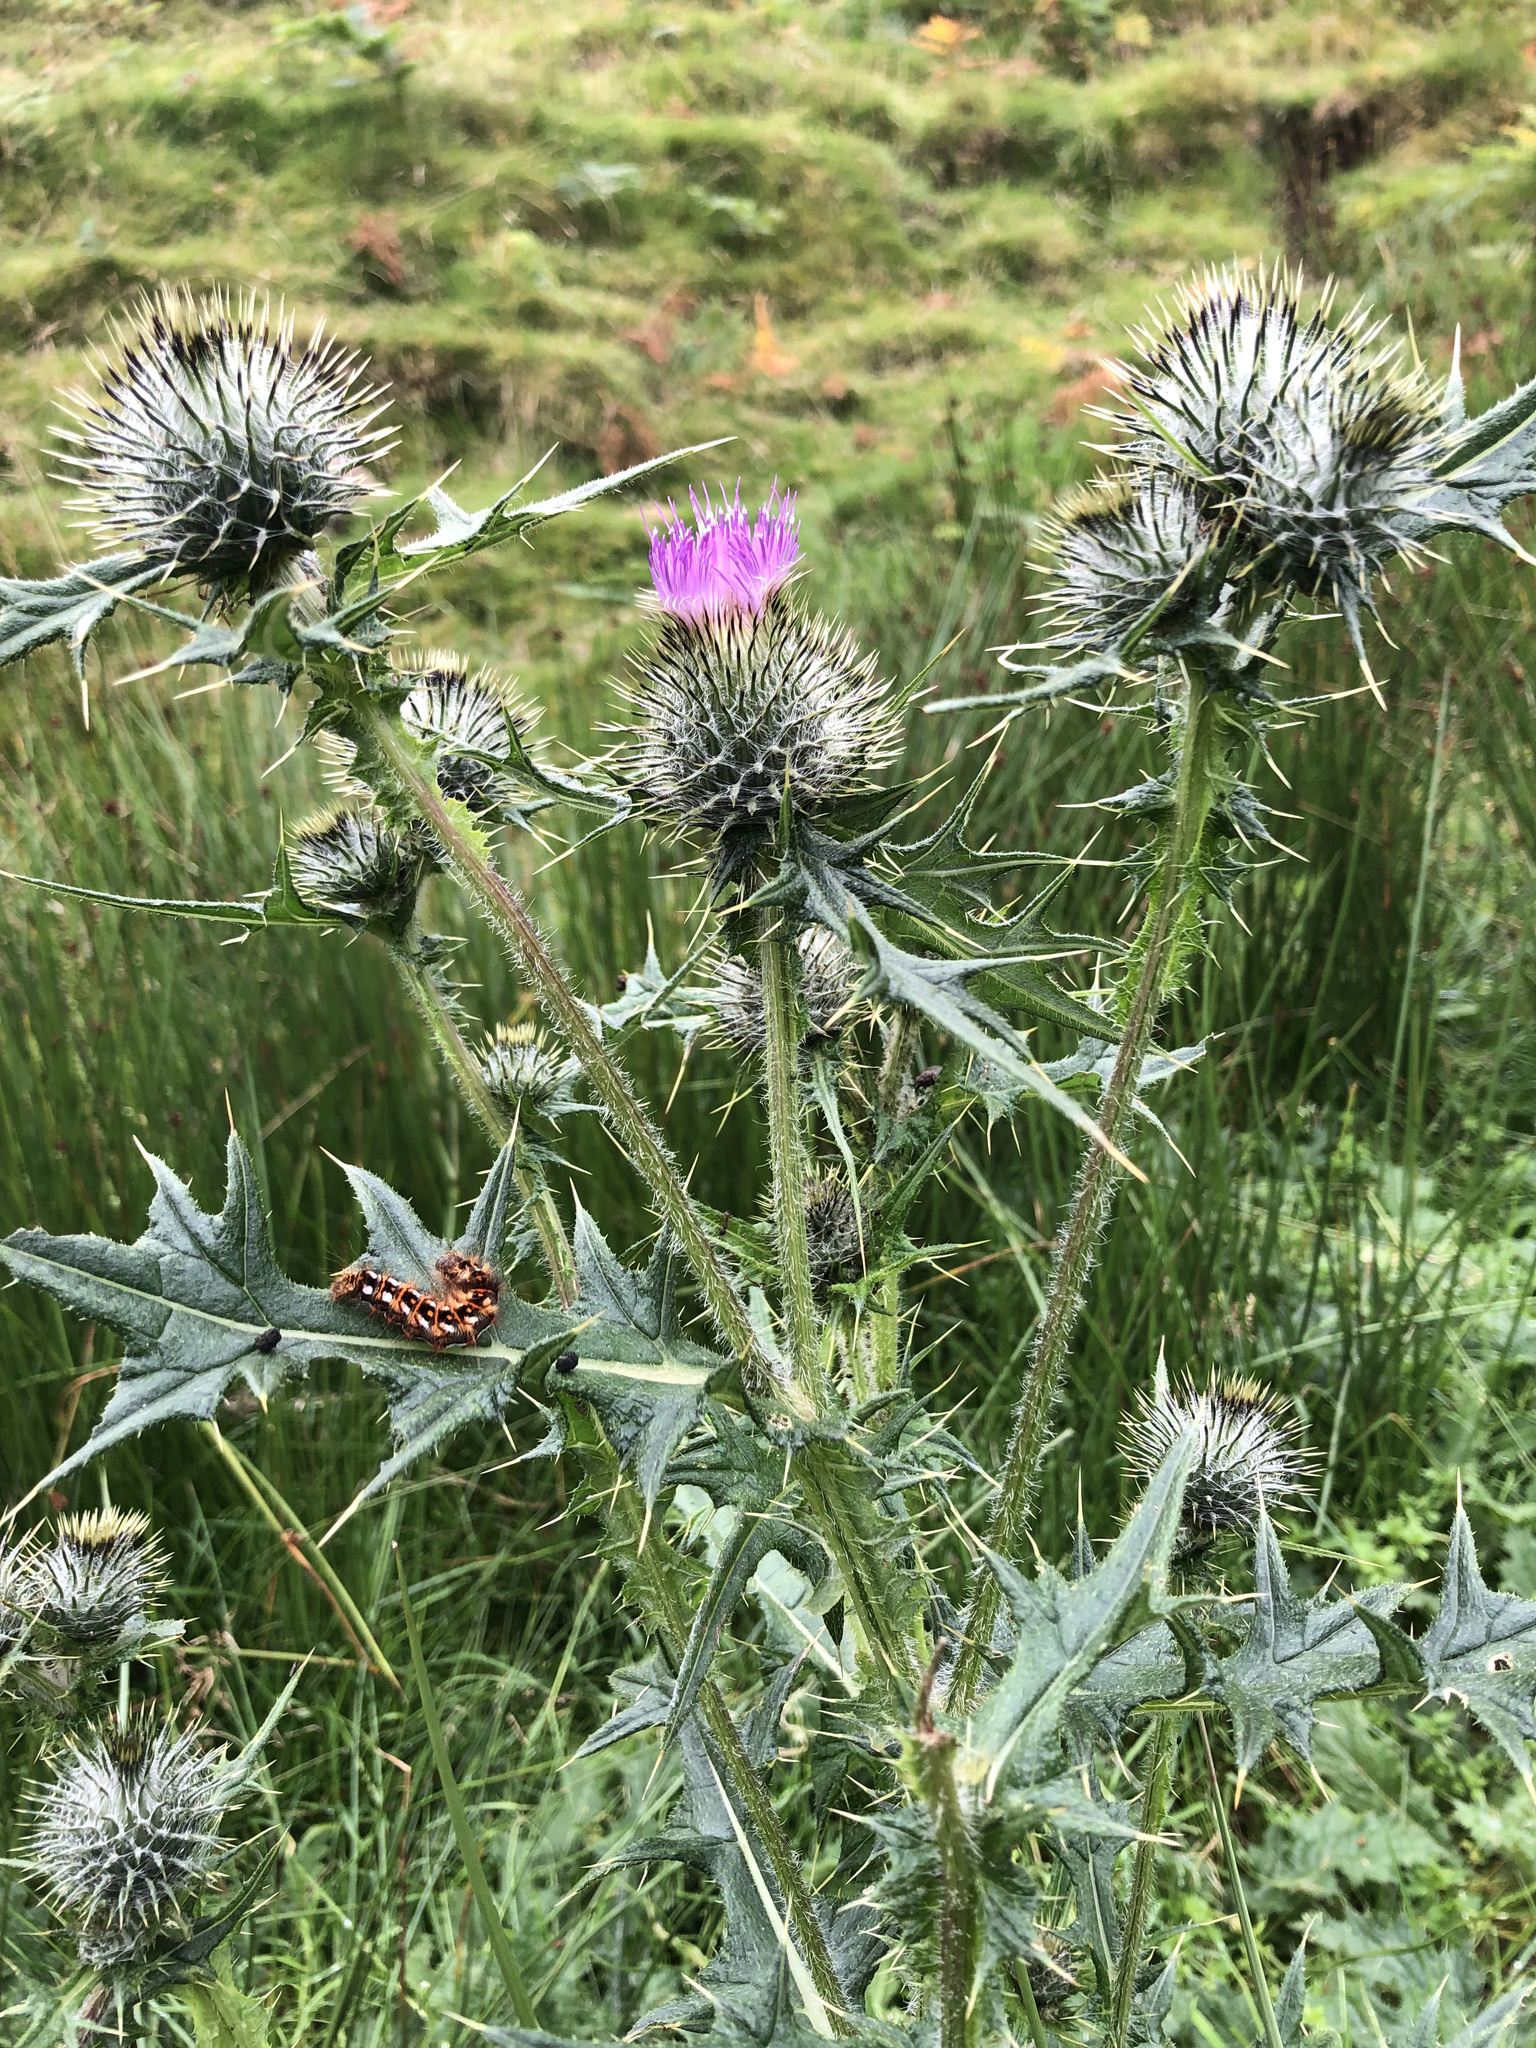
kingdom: Plantae
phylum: Tracheophyta
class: Magnoliopsida
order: Asterales
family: Asteraceae
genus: Cirsium
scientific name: Cirsium vulgare
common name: Bull thistle
